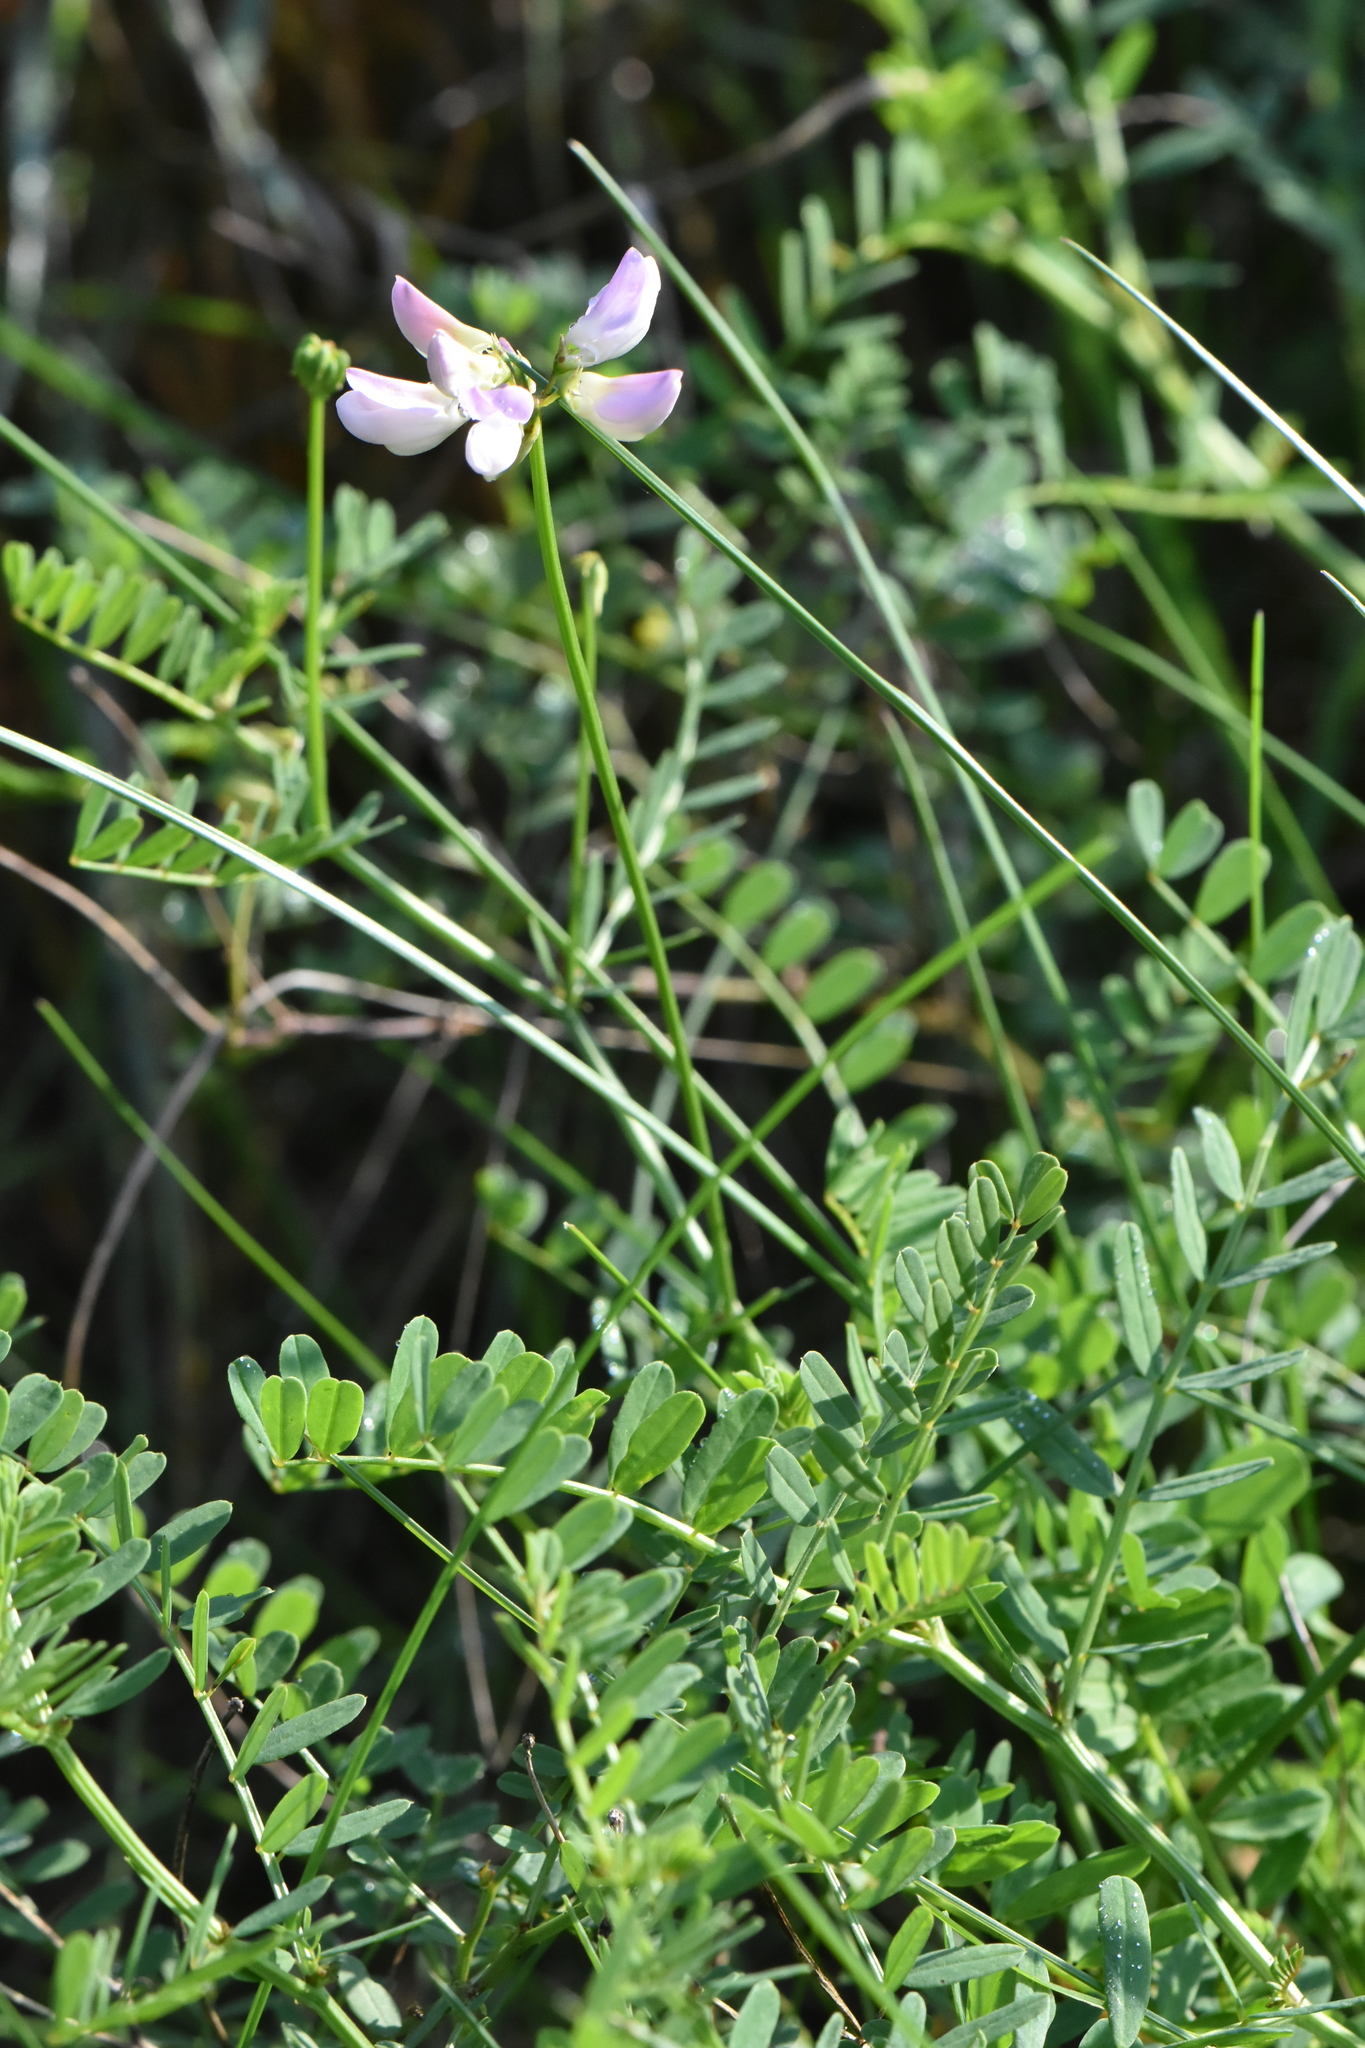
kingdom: Plantae
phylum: Tracheophyta
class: Magnoliopsida
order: Fabales
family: Fabaceae
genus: Coronilla
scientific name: Coronilla varia
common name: Crownvetch
